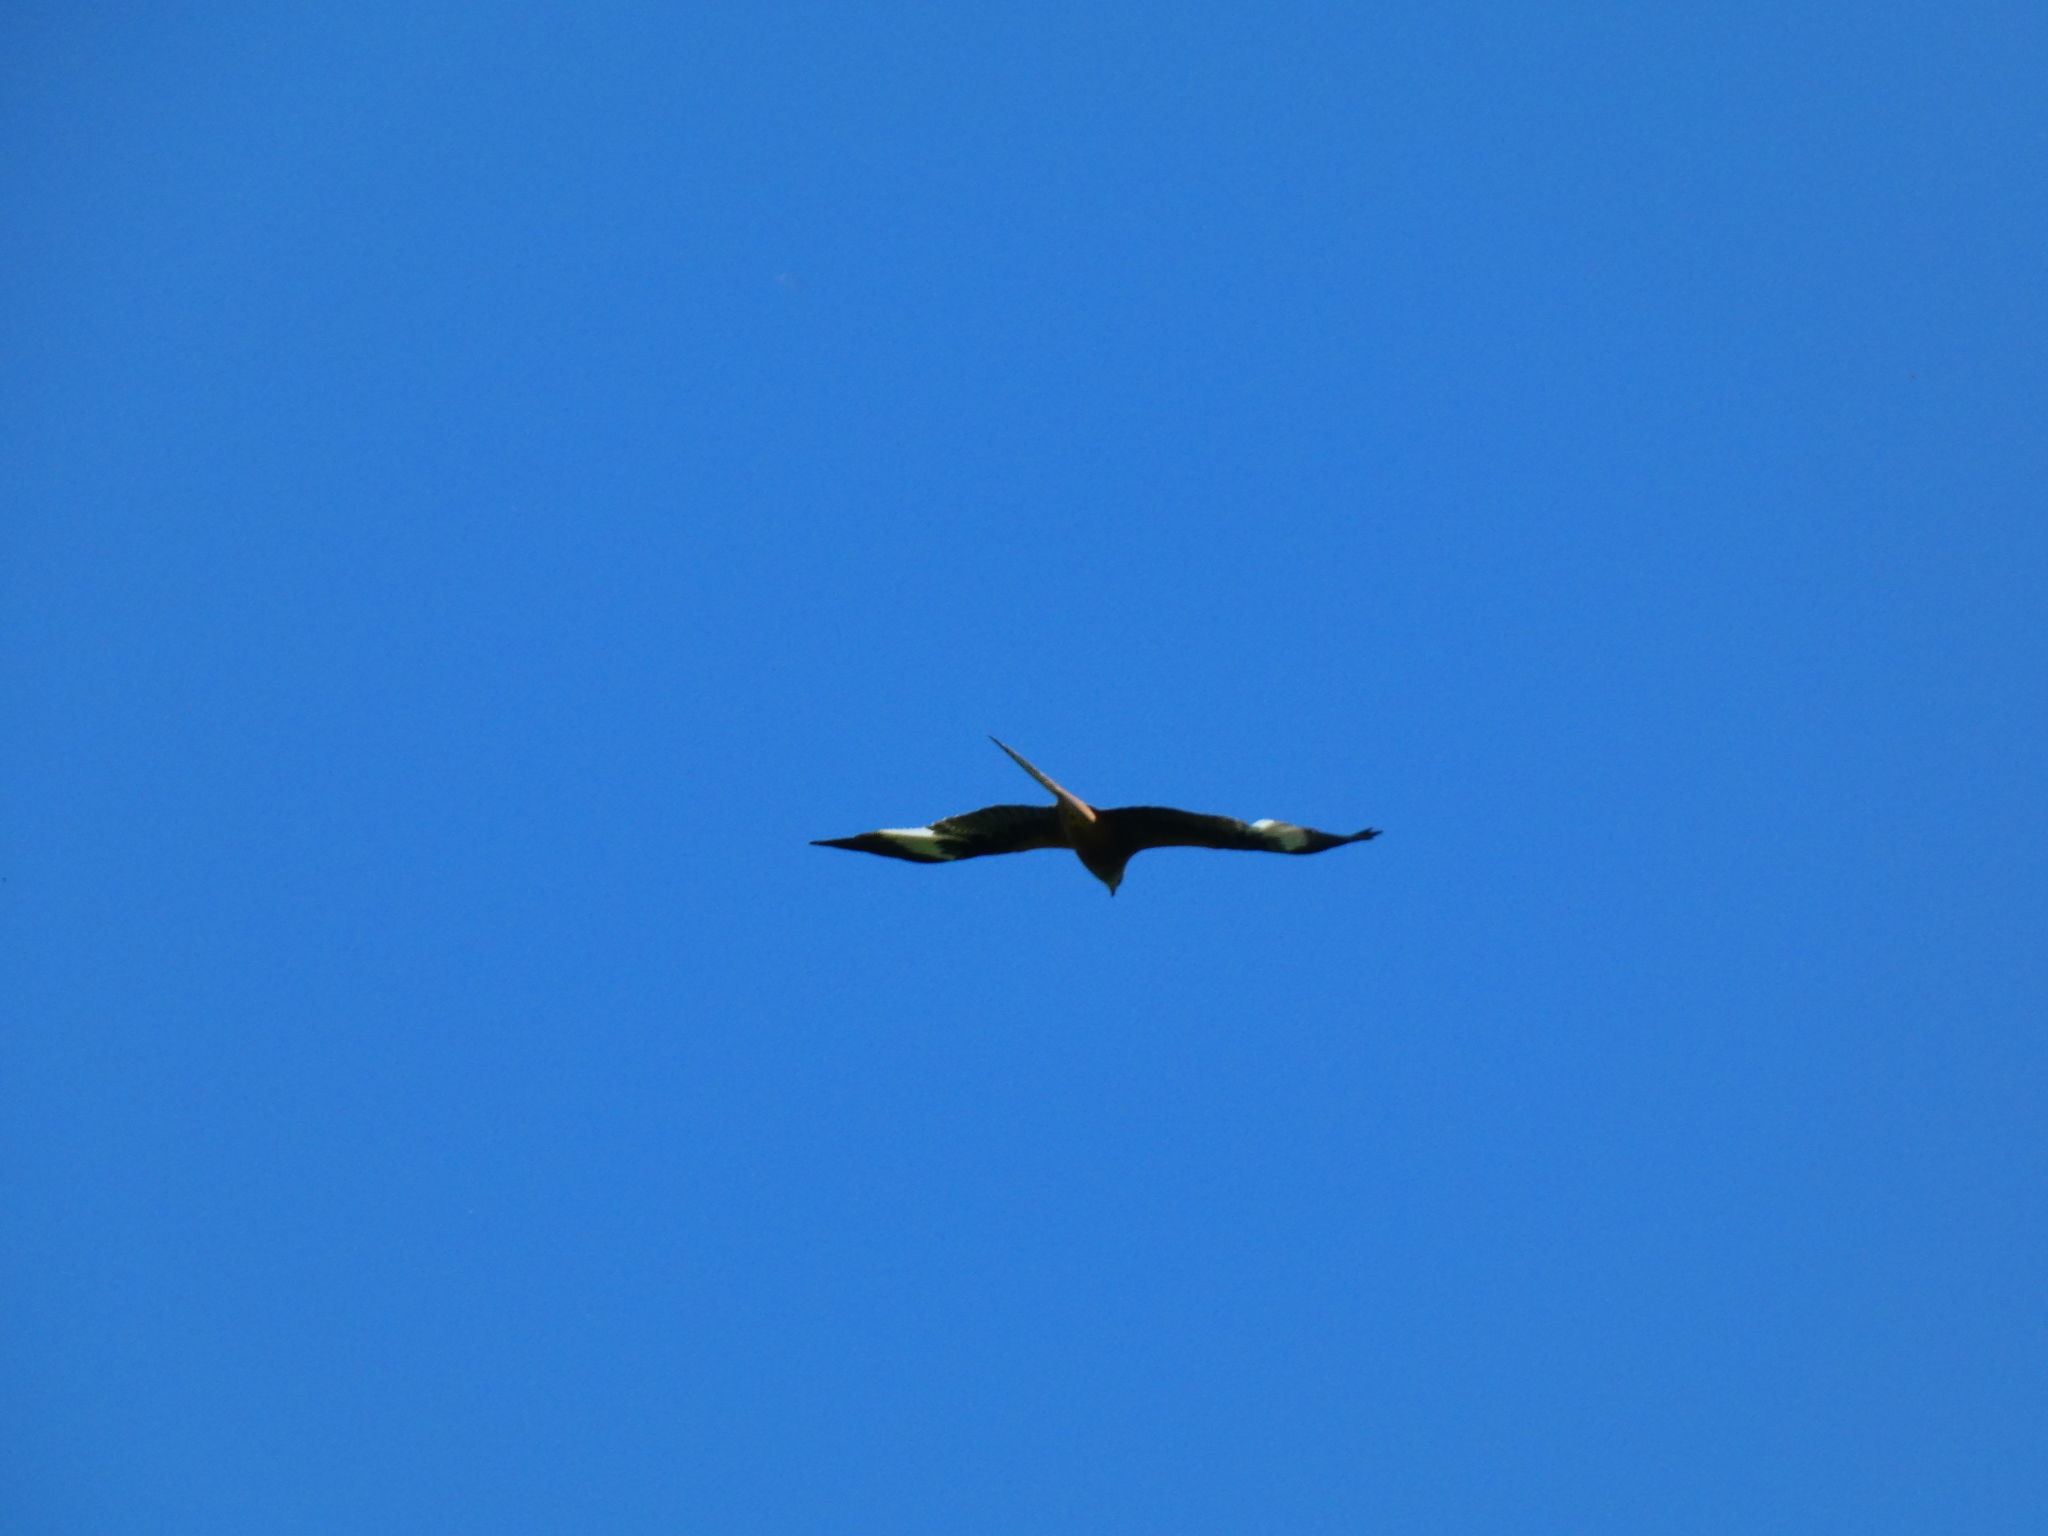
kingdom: Animalia
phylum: Chordata
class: Aves
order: Accipitriformes
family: Accipitridae
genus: Milvus
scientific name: Milvus milvus
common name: Red kite
